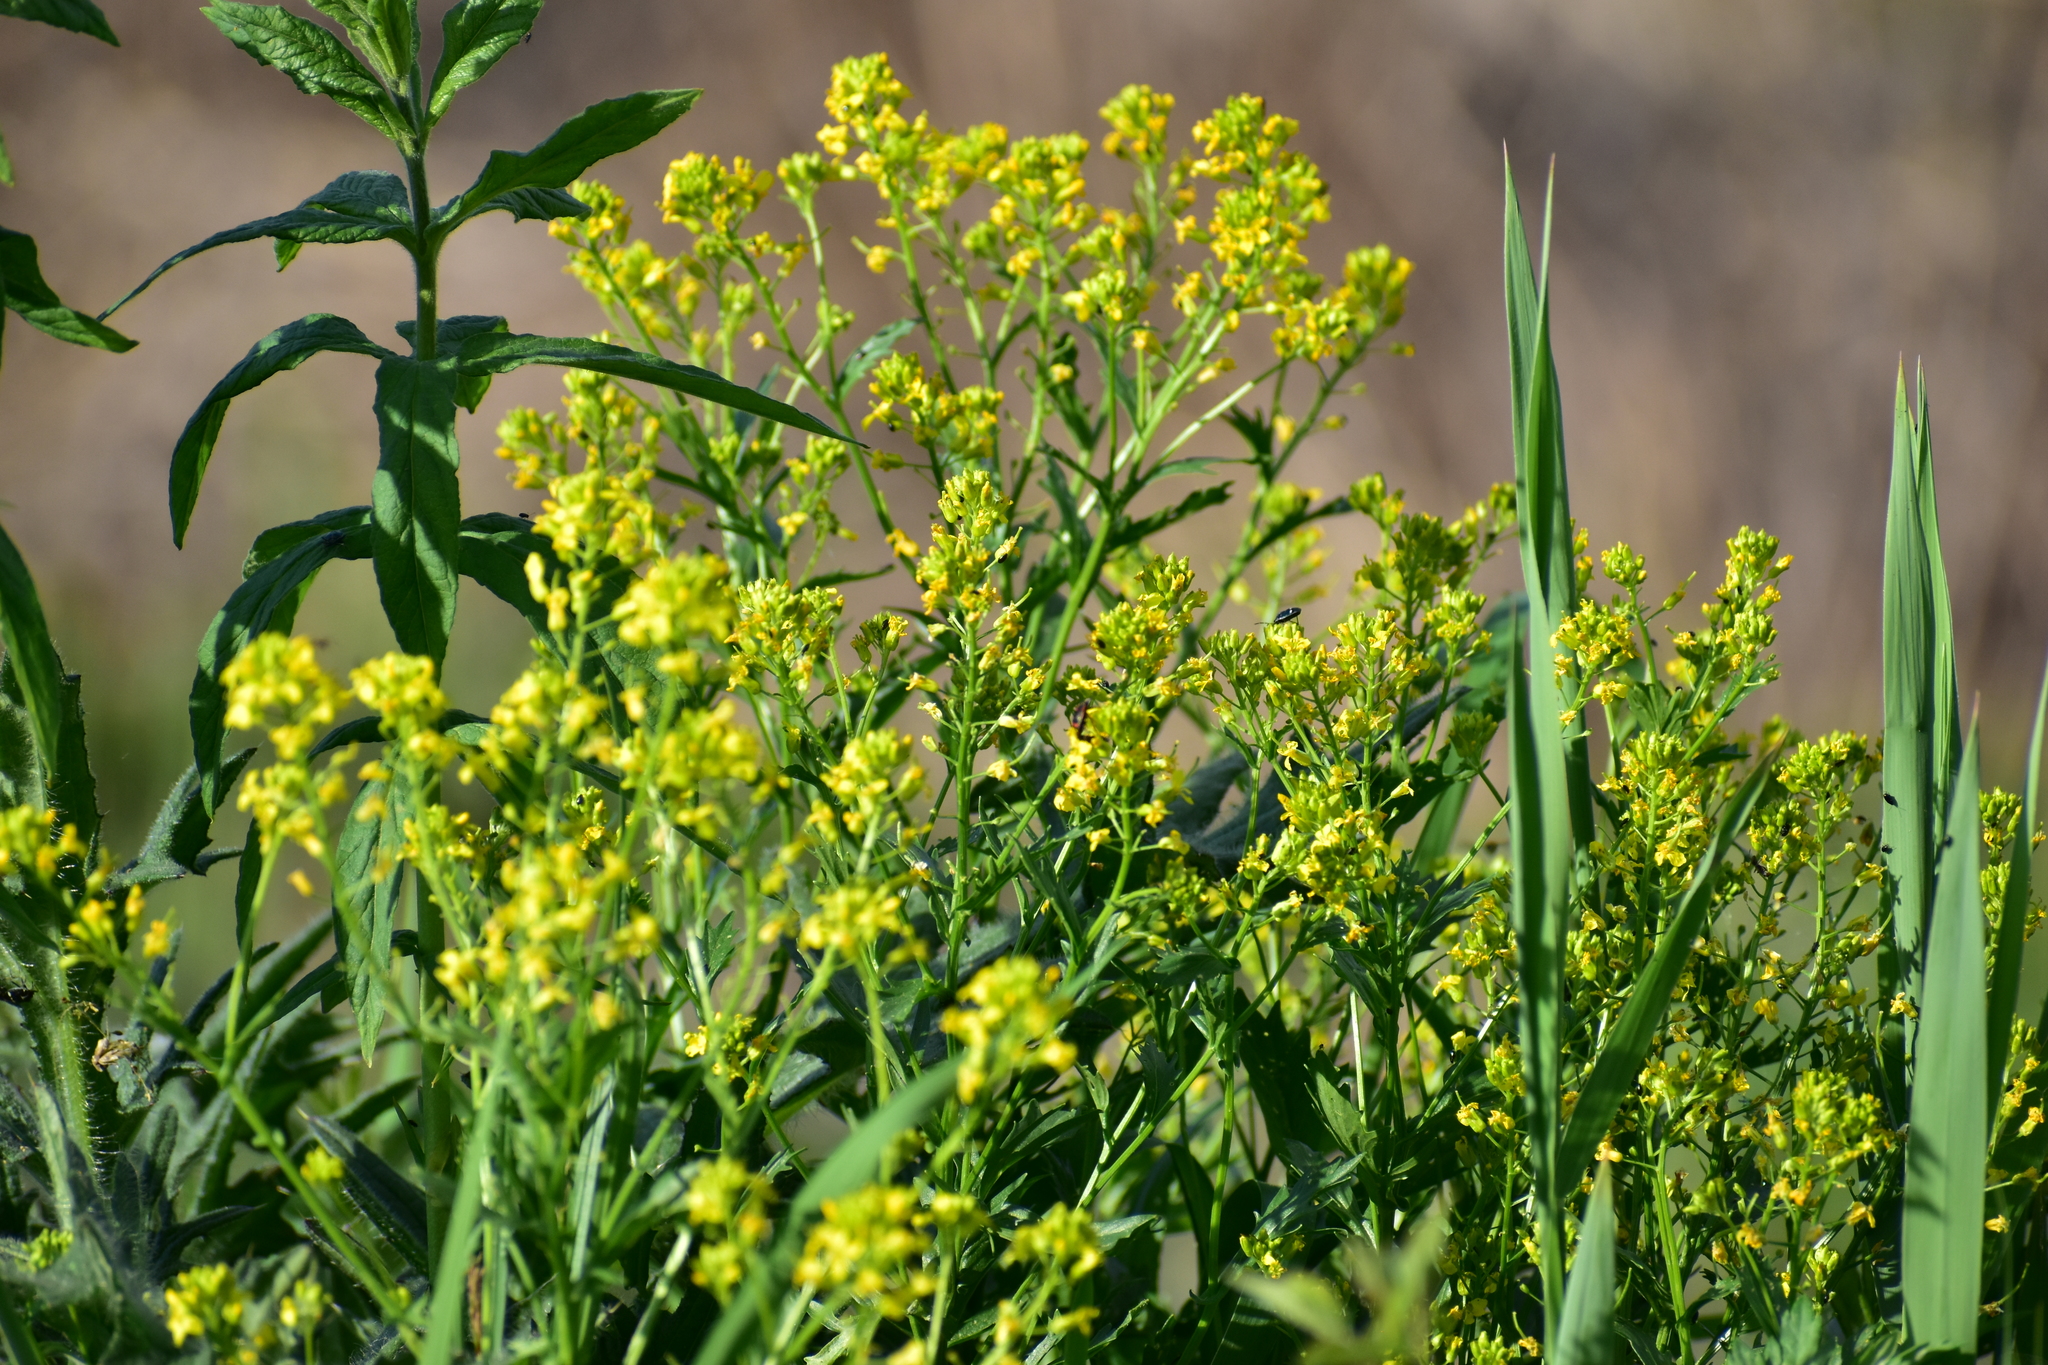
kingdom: Plantae
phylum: Tracheophyta
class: Magnoliopsida
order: Brassicales
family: Brassicaceae
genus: Barbarea
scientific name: Barbarea vulgaris
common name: Cressy-greens
